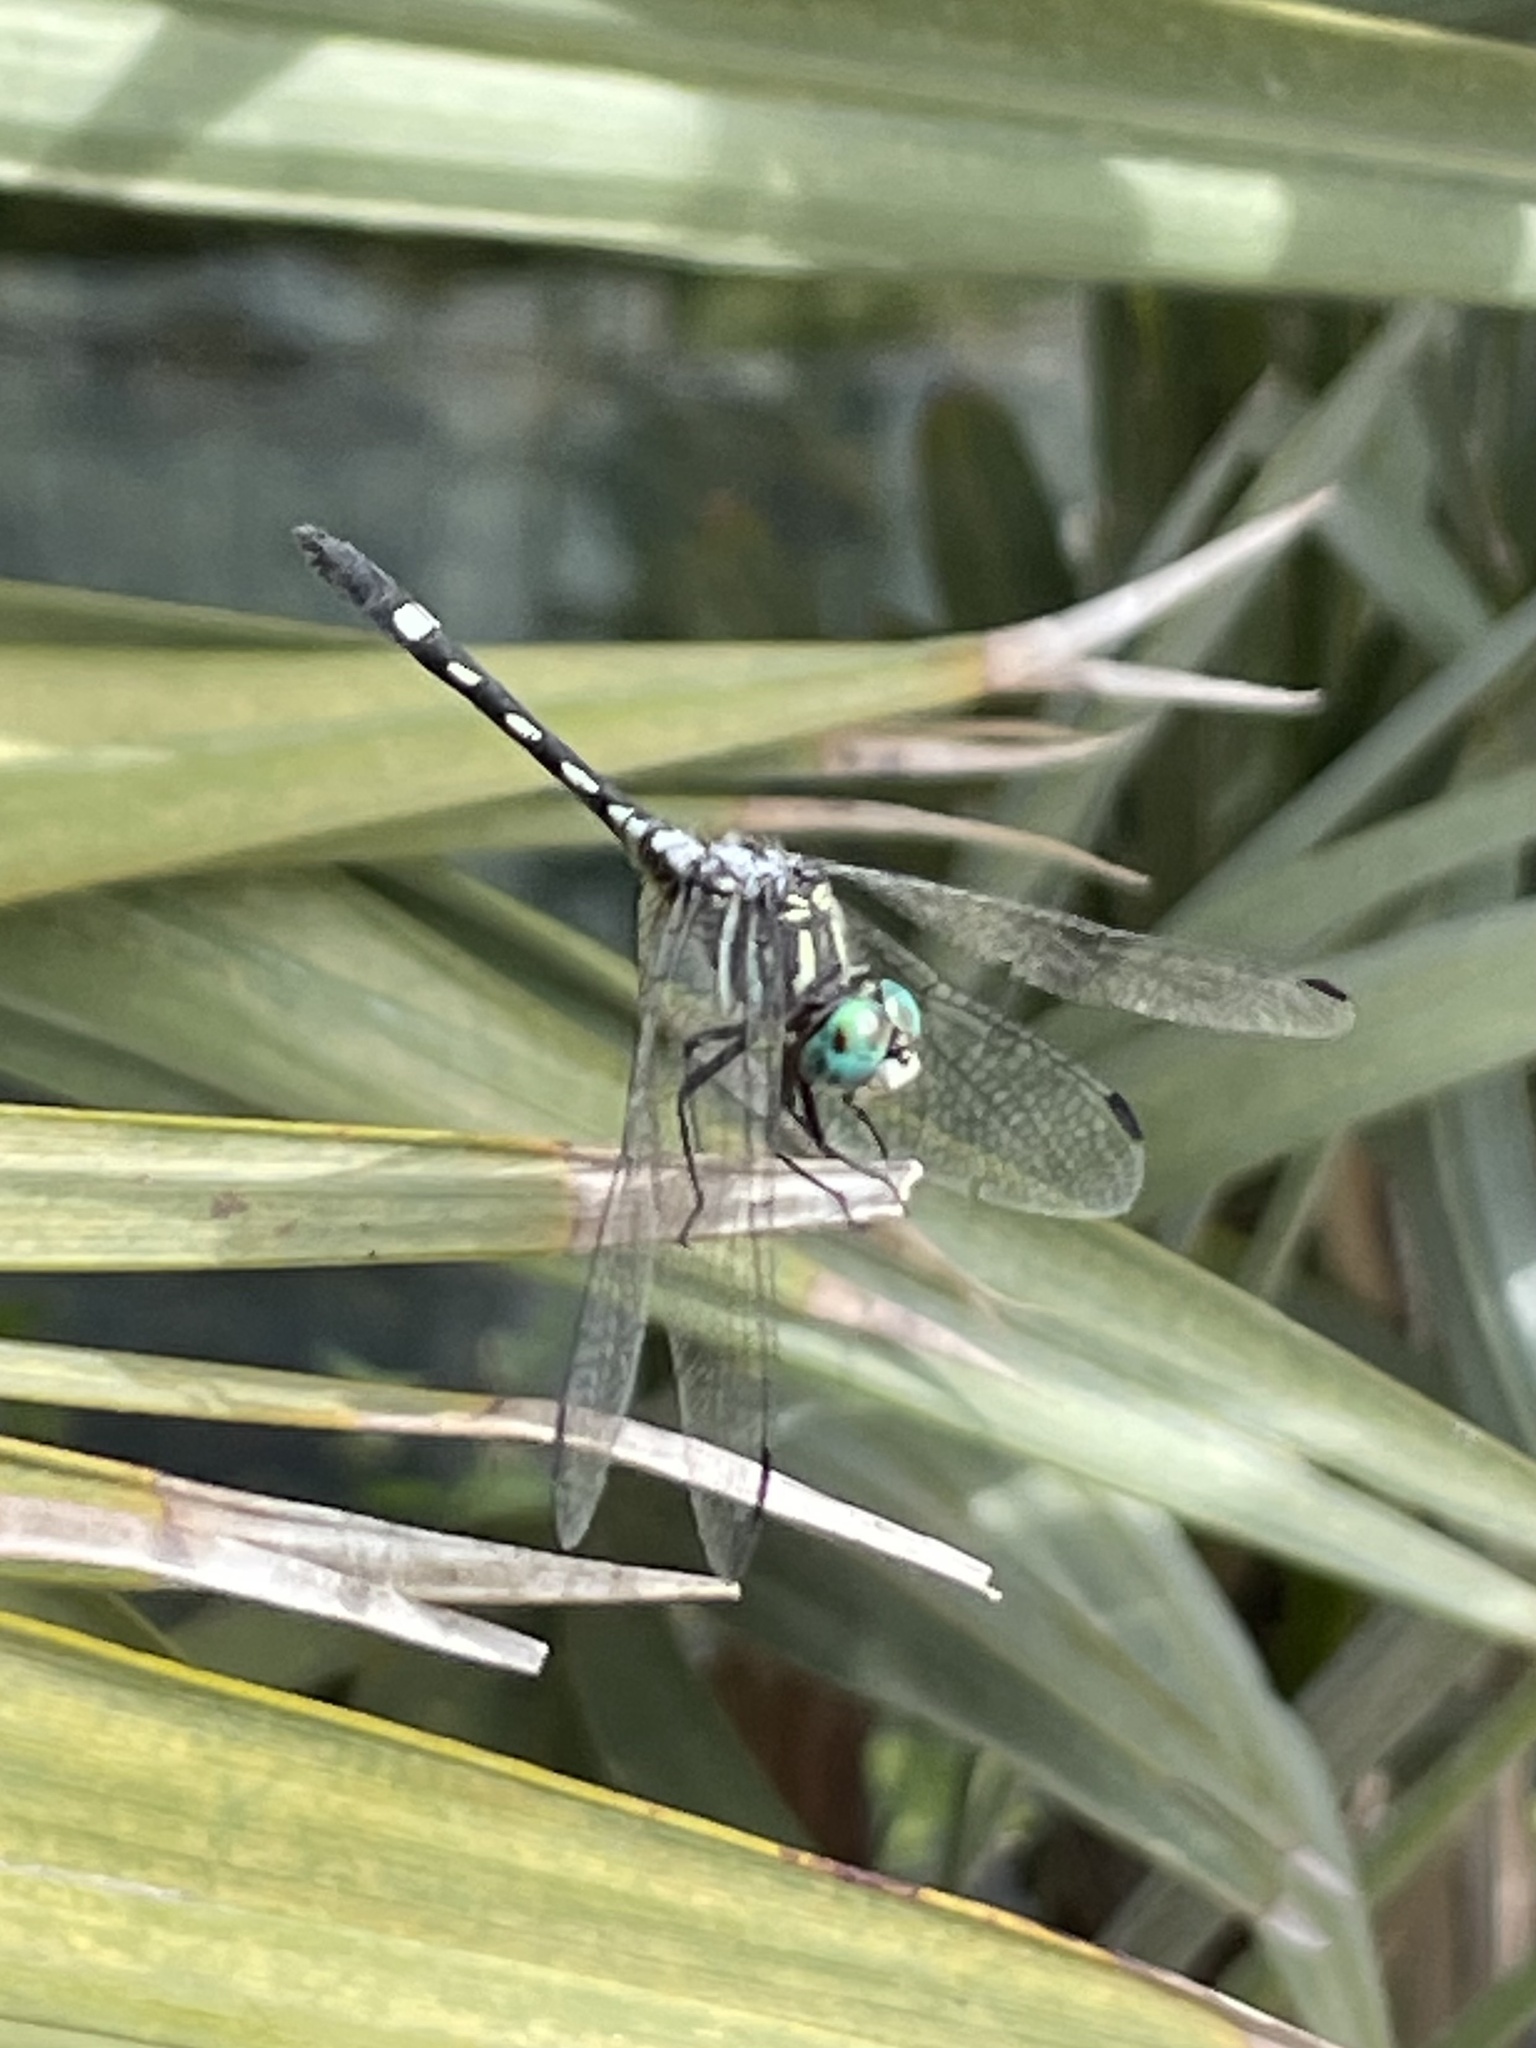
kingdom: Animalia
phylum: Arthropoda
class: Insecta
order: Odonata
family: Libellulidae
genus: Micrathyria
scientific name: Micrathyria hagenii
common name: Thornbush dasher
